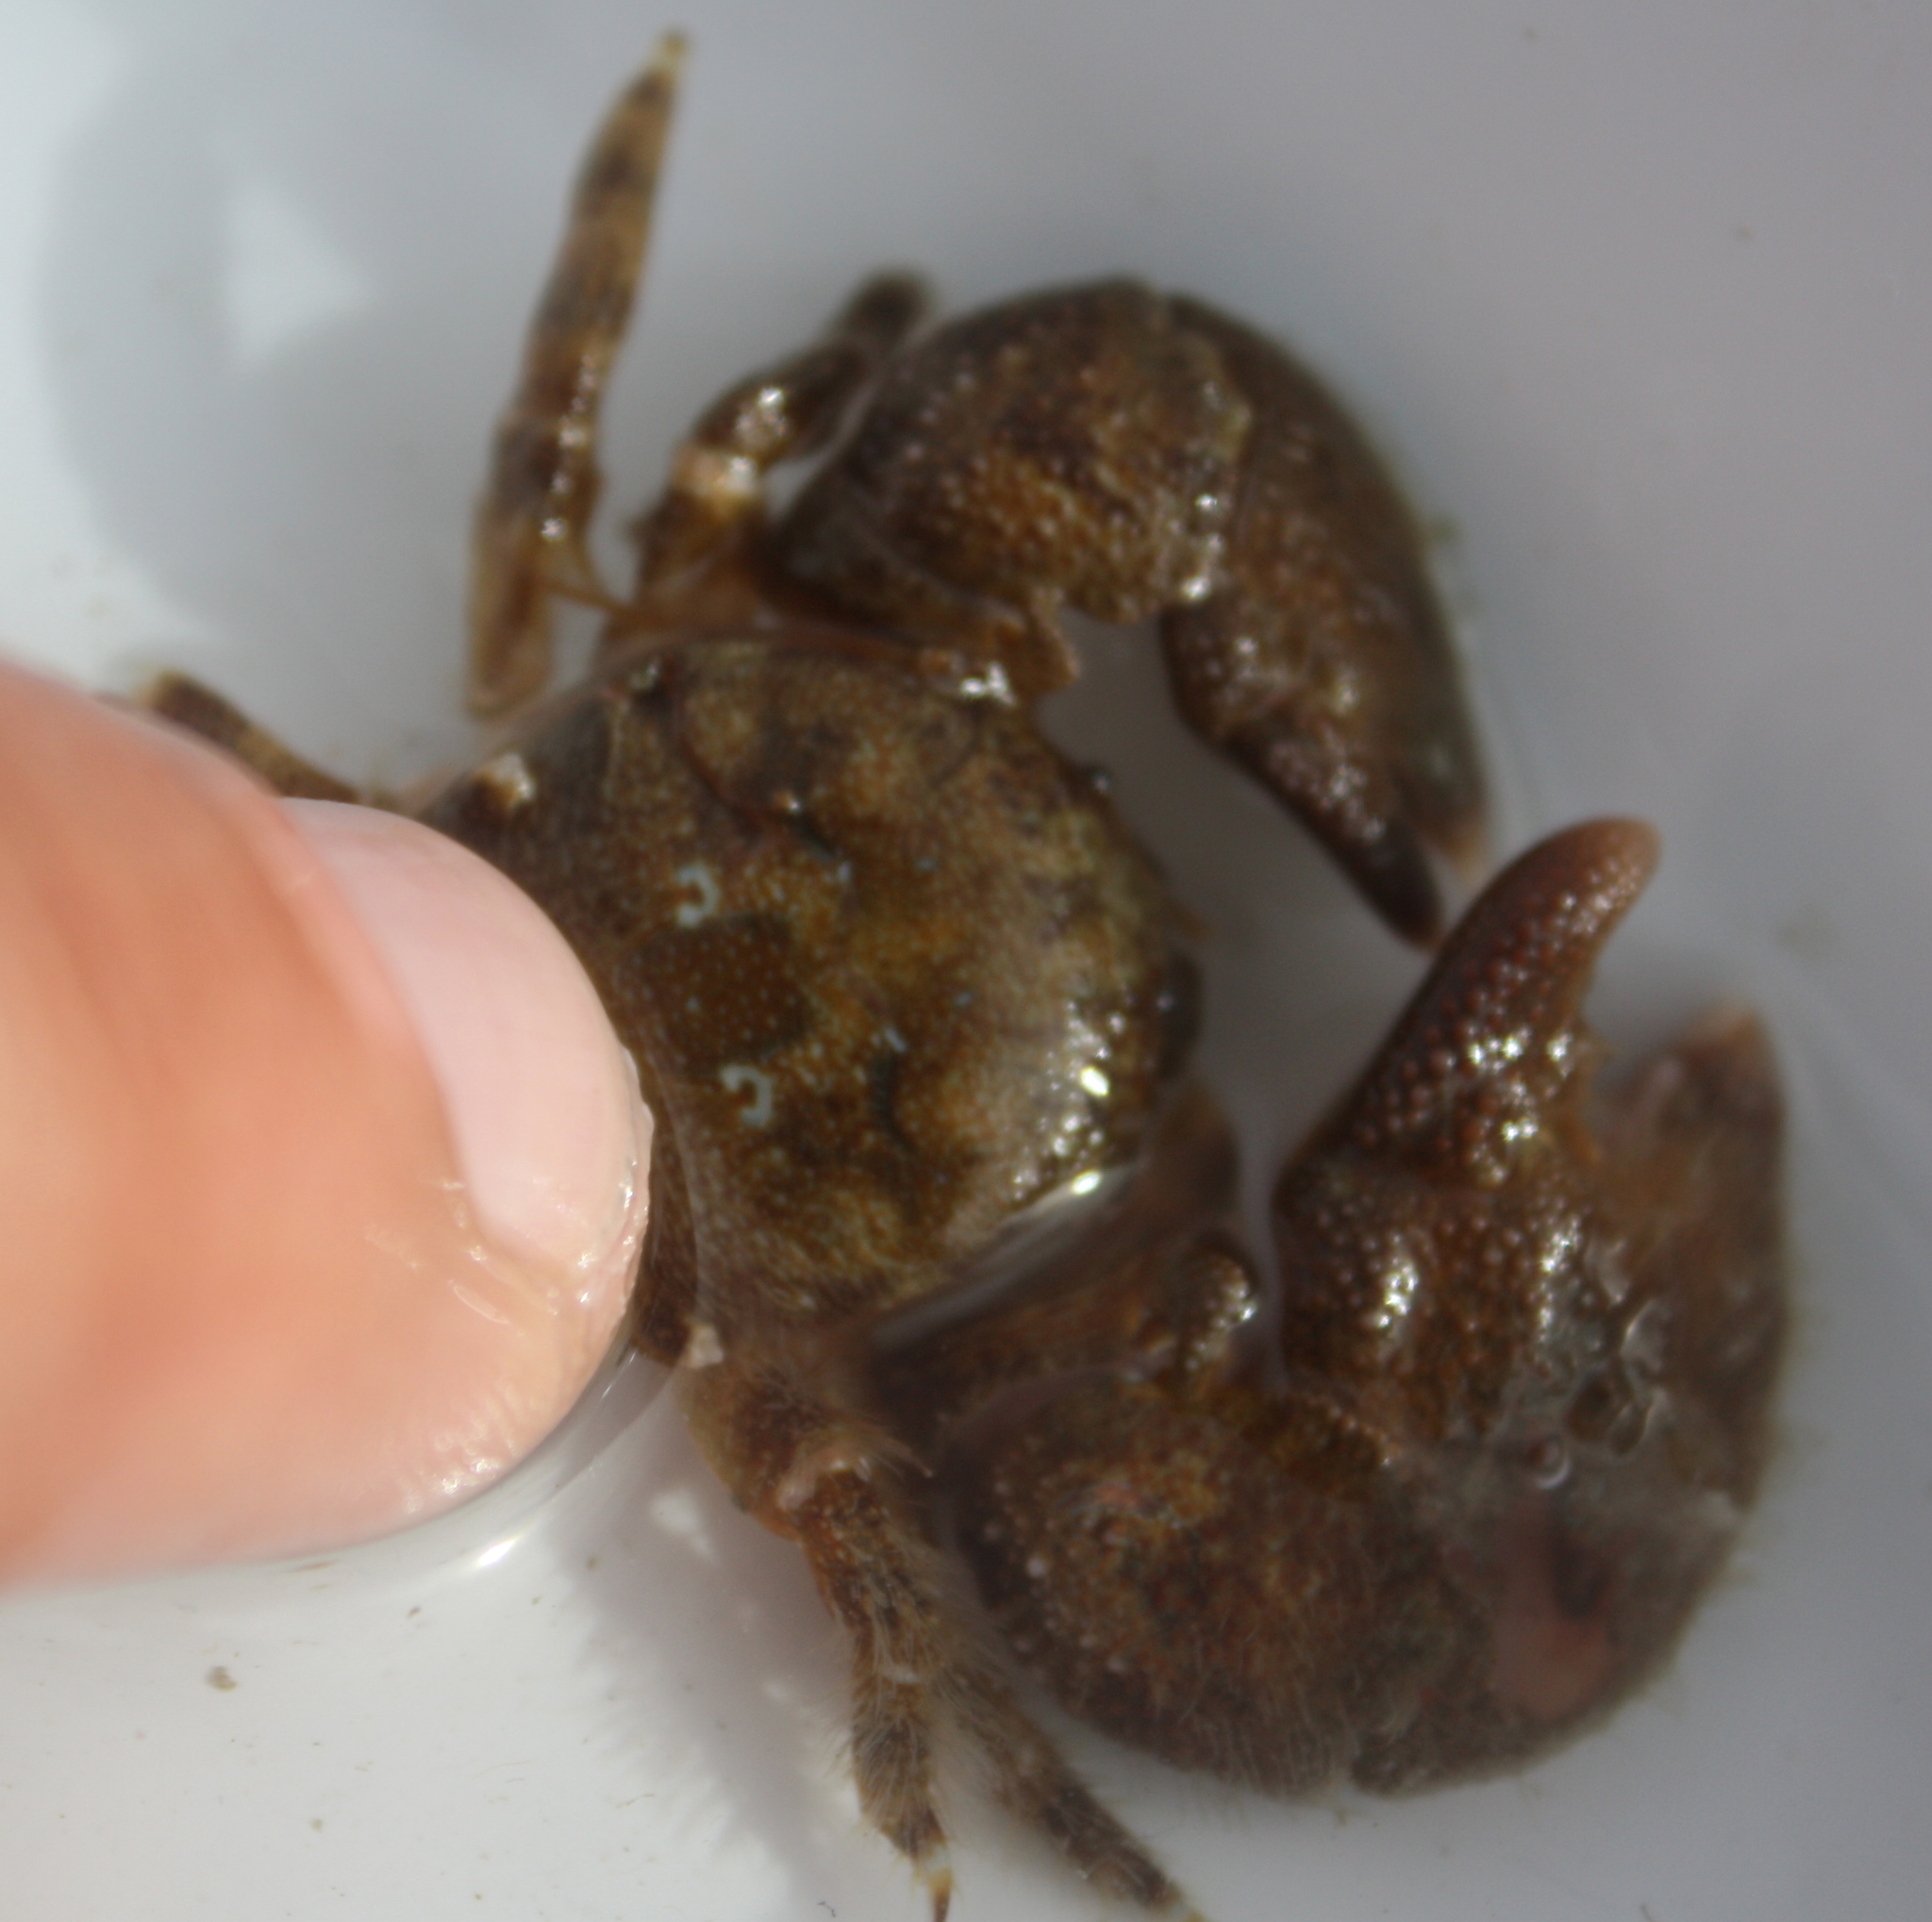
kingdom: Animalia
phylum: Arthropoda
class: Malacostraca
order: Decapoda
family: Porcellanidae
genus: Pachycheles
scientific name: Pachycheles rudis
